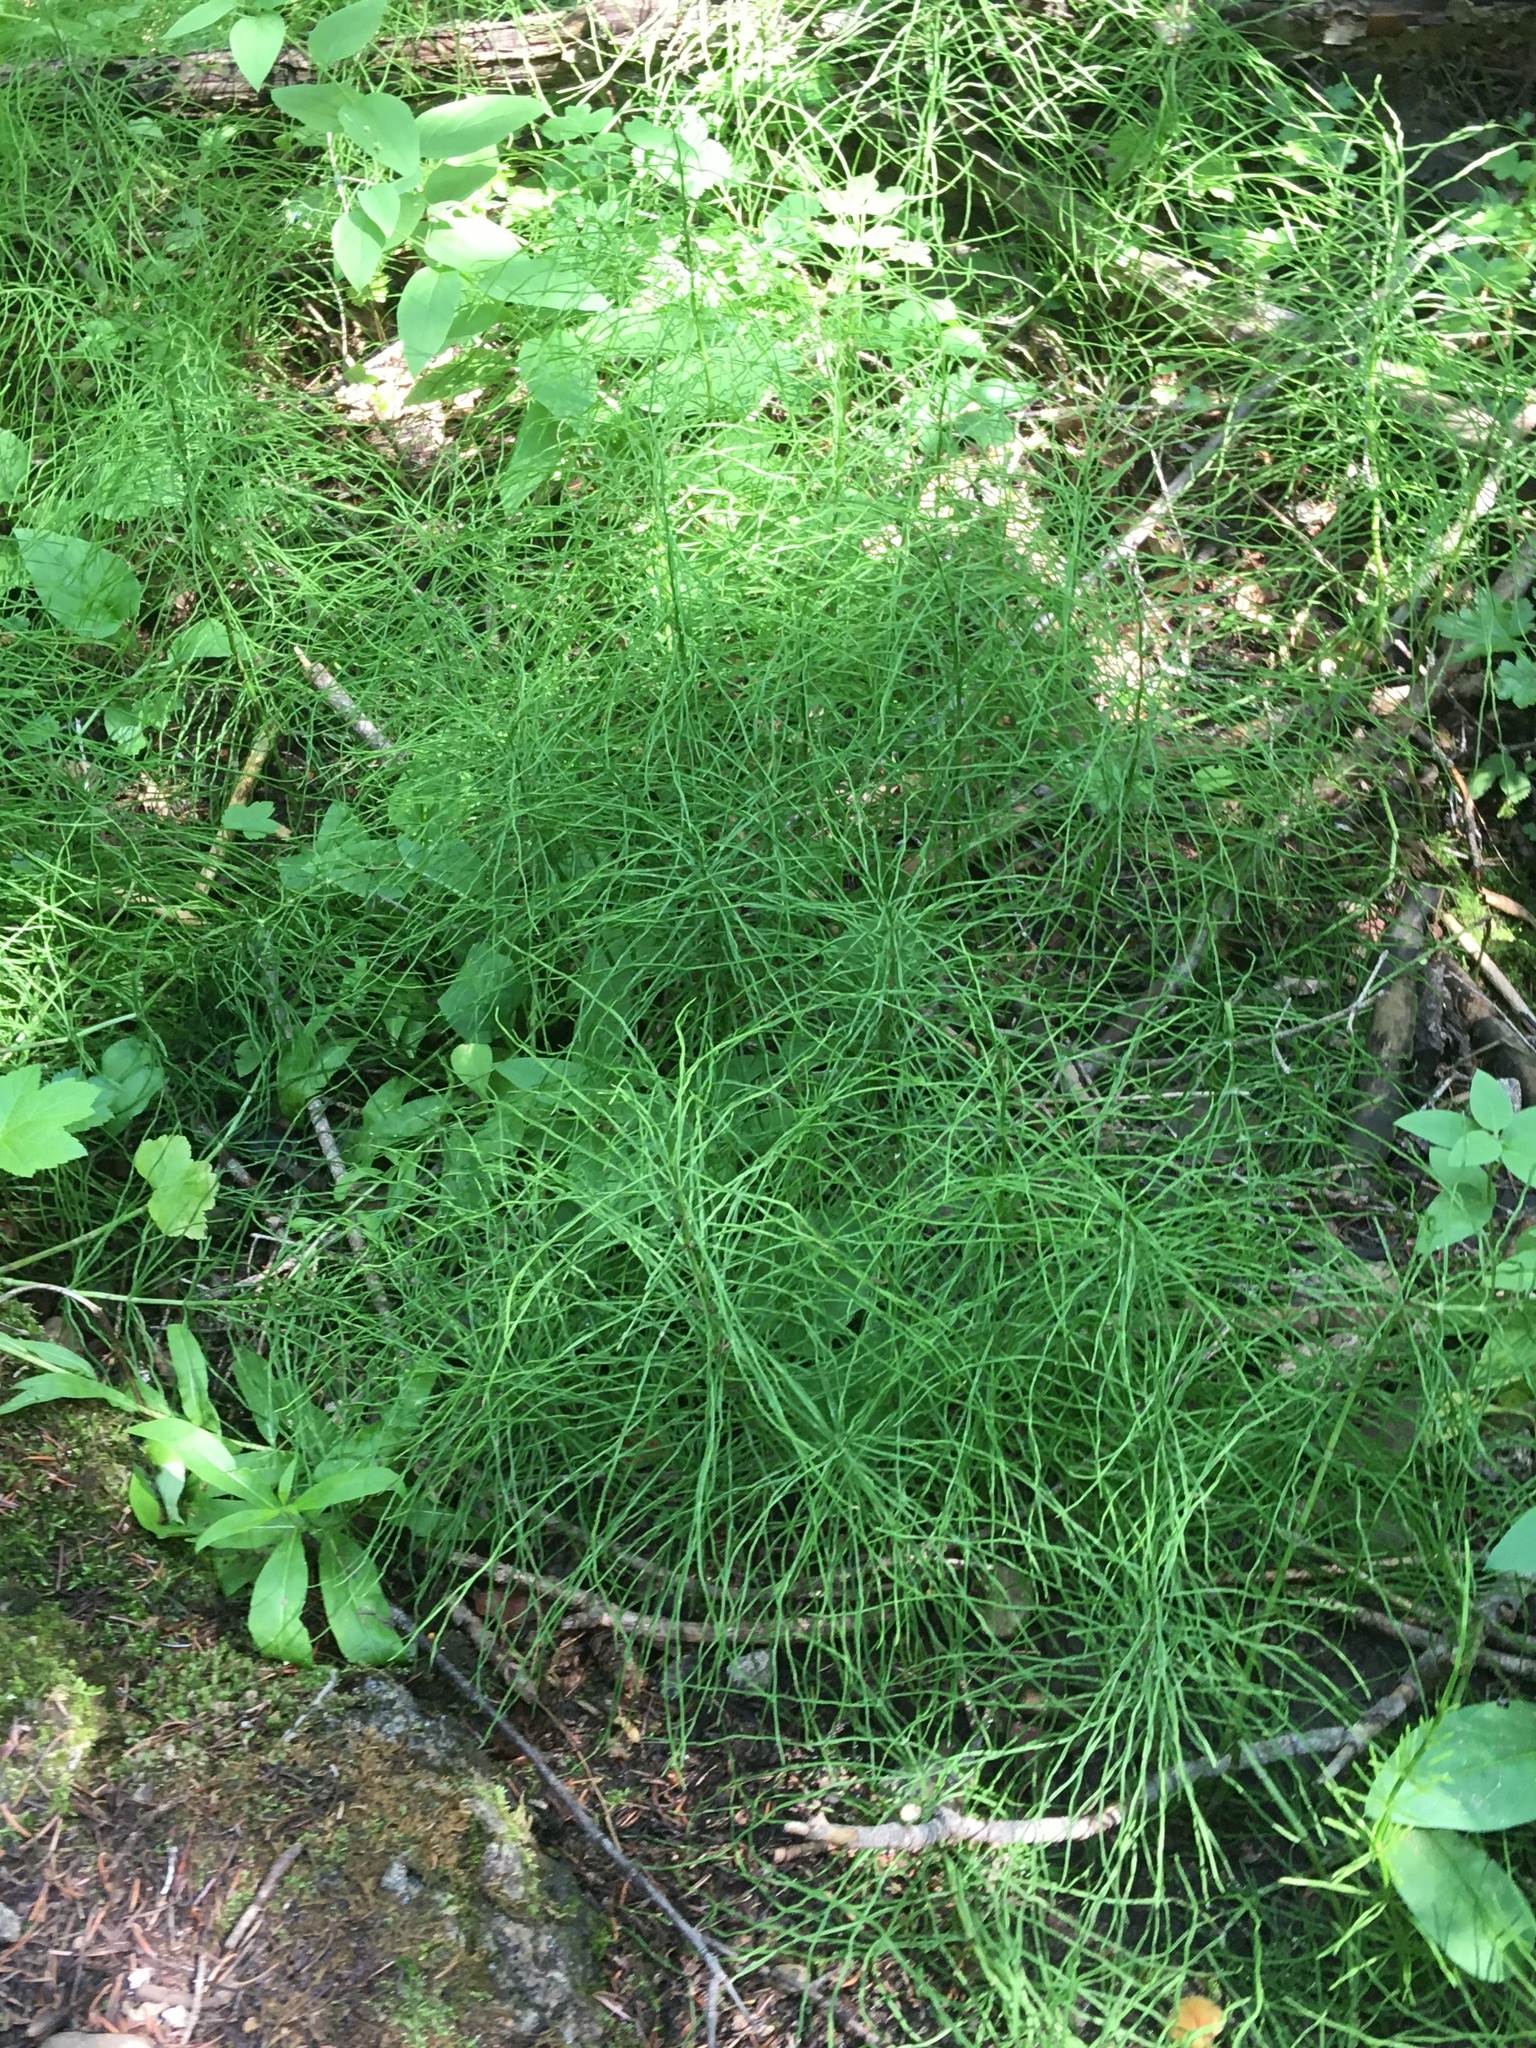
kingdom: Plantae
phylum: Tracheophyta
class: Polypodiopsida
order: Equisetales
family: Equisetaceae
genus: Equisetum
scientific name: Equisetum arvense
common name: Field horsetail
